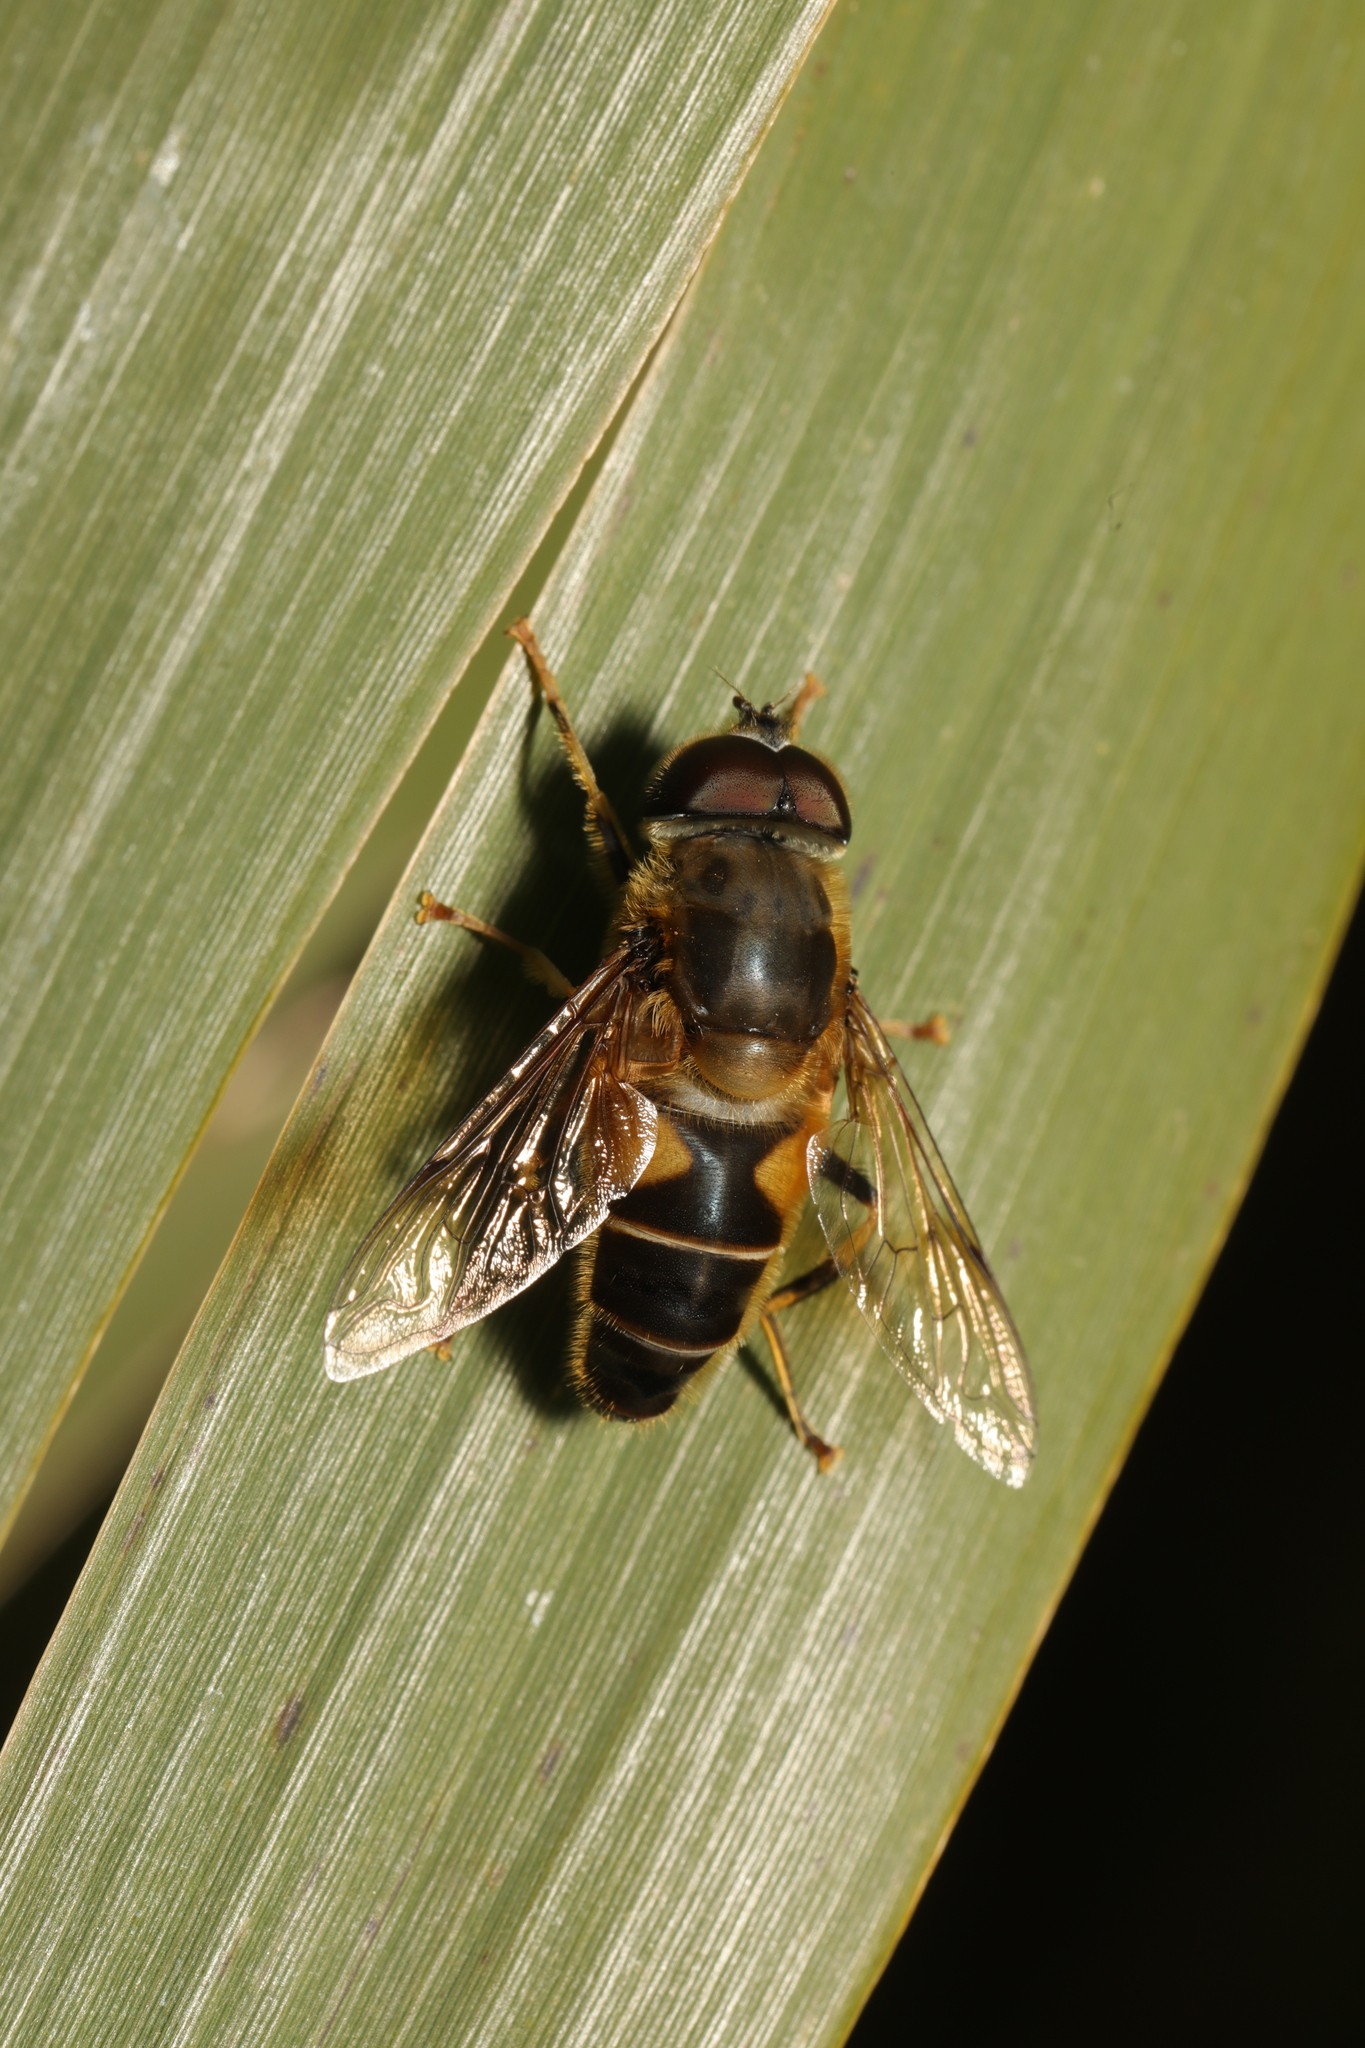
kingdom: Animalia
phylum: Arthropoda
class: Insecta
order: Diptera
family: Syrphidae
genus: Eristalis
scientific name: Eristalis pertinax
